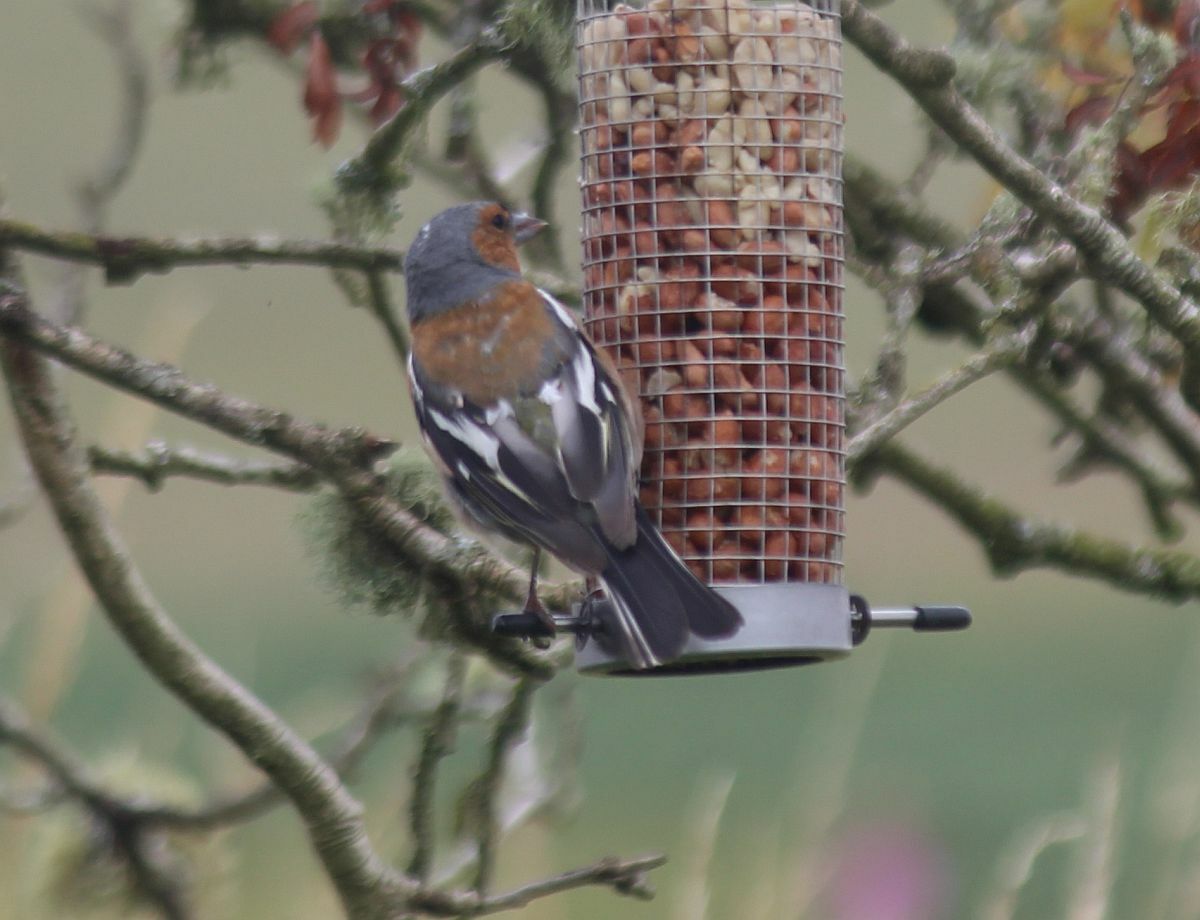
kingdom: Animalia
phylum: Chordata
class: Aves
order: Passeriformes
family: Fringillidae
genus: Fringilla
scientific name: Fringilla coelebs
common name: Common chaffinch
